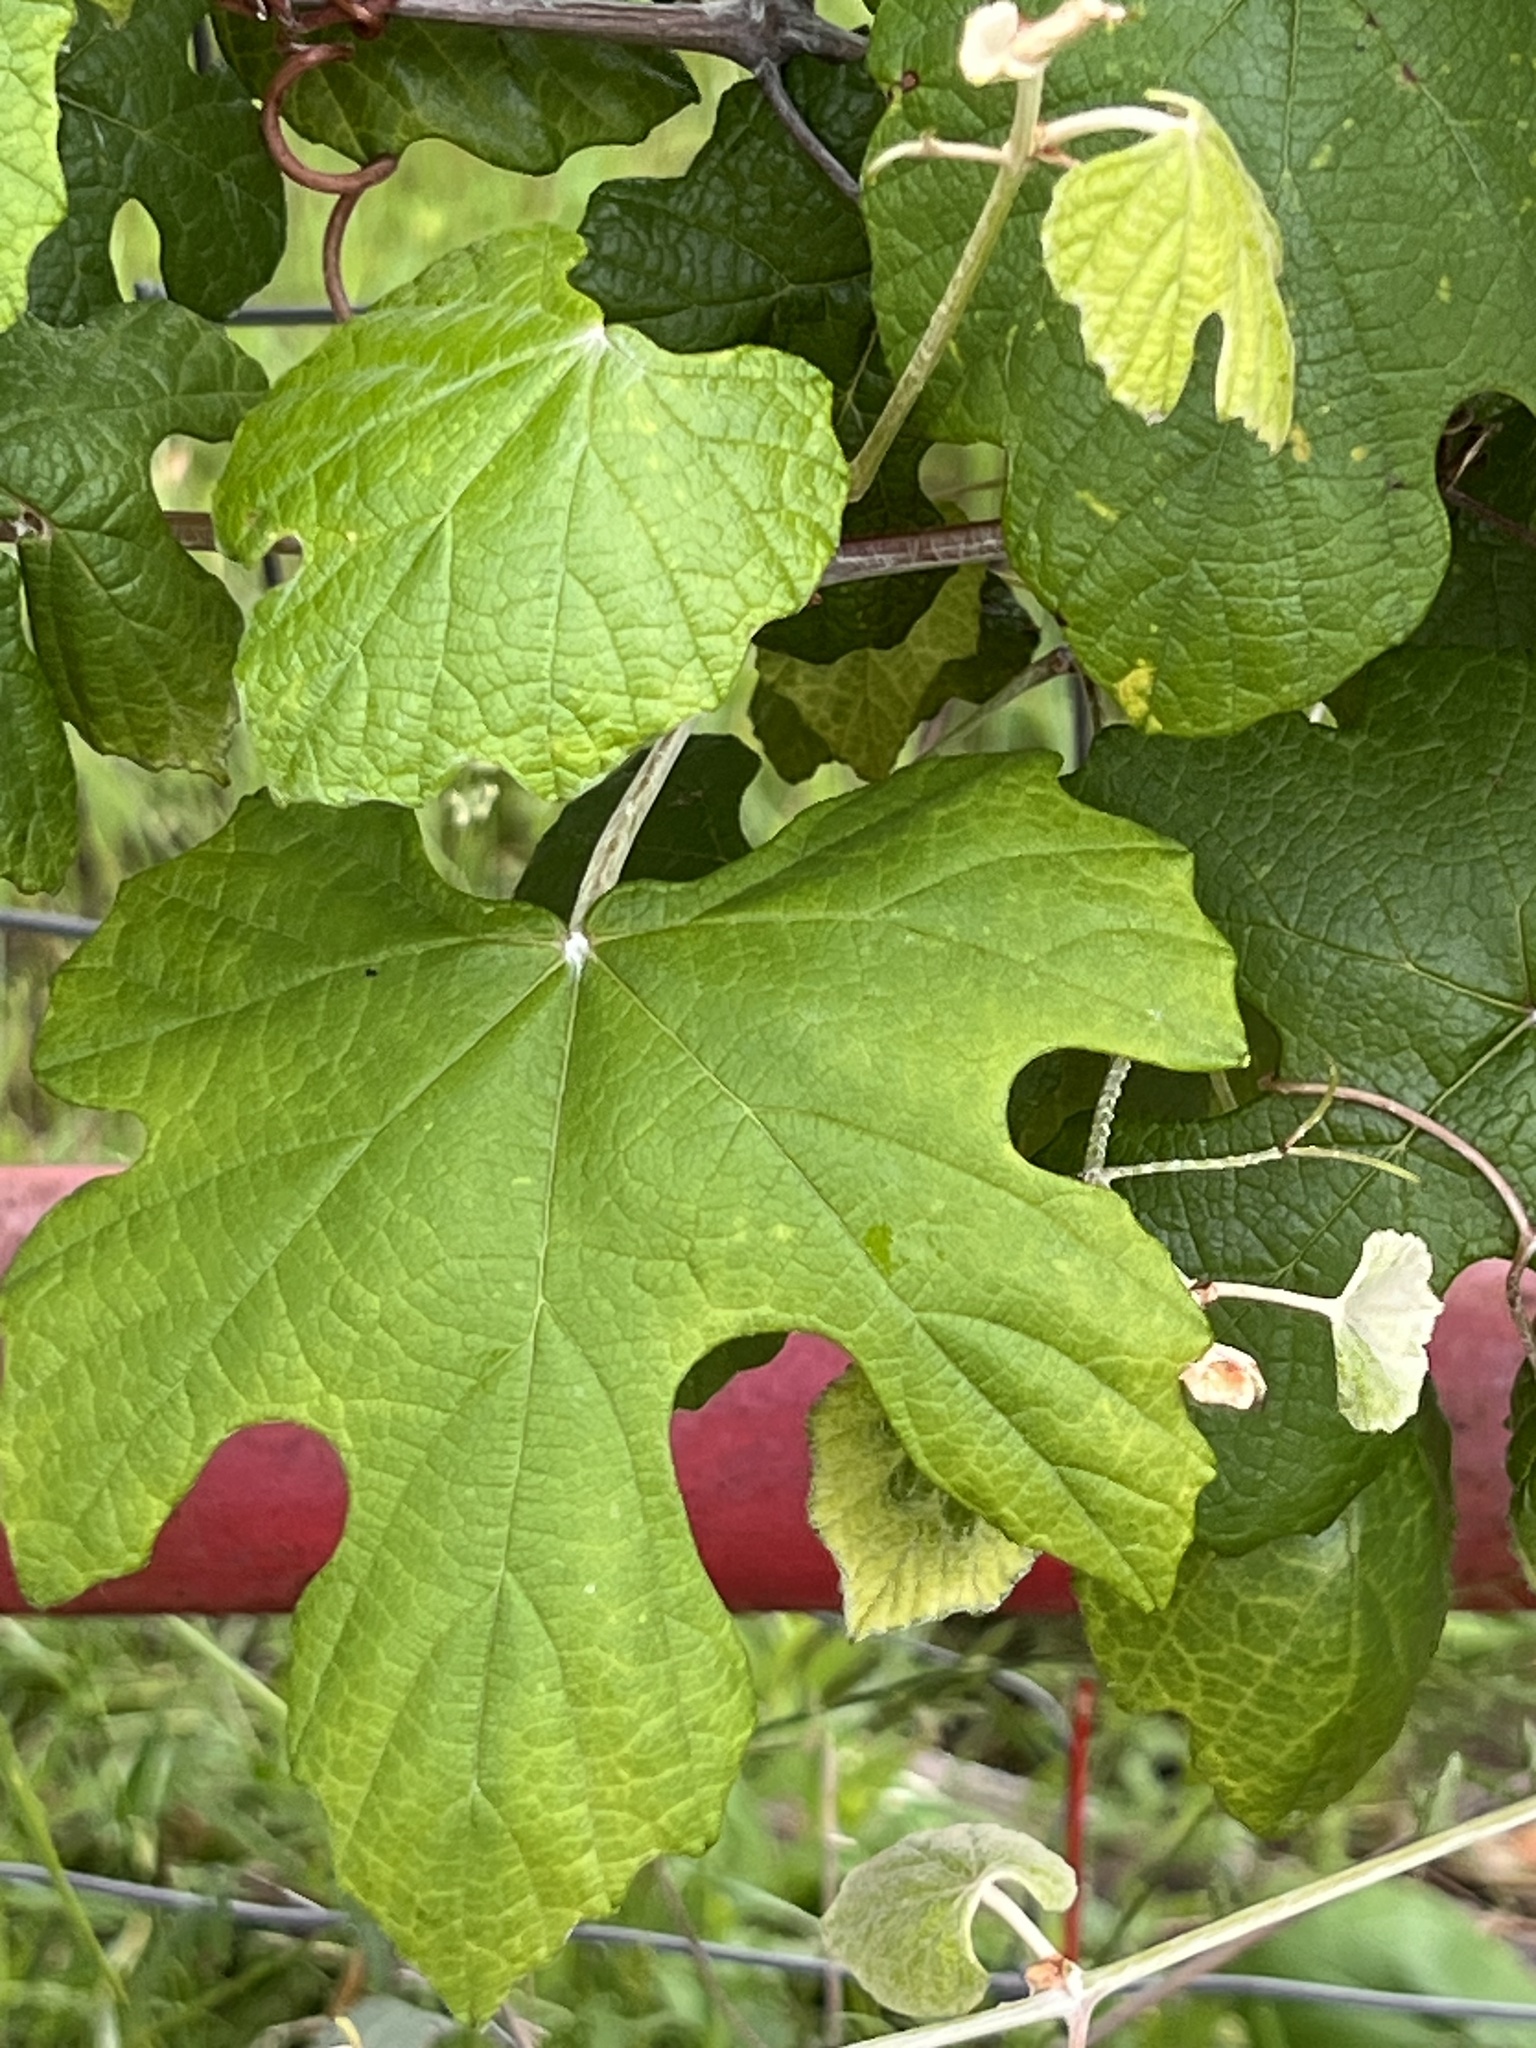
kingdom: Plantae
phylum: Tracheophyta
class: Magnoliopsida
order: Vitales
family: Vitaceae
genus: Vitis
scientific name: Vitis mustangensis
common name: Mustang grape
